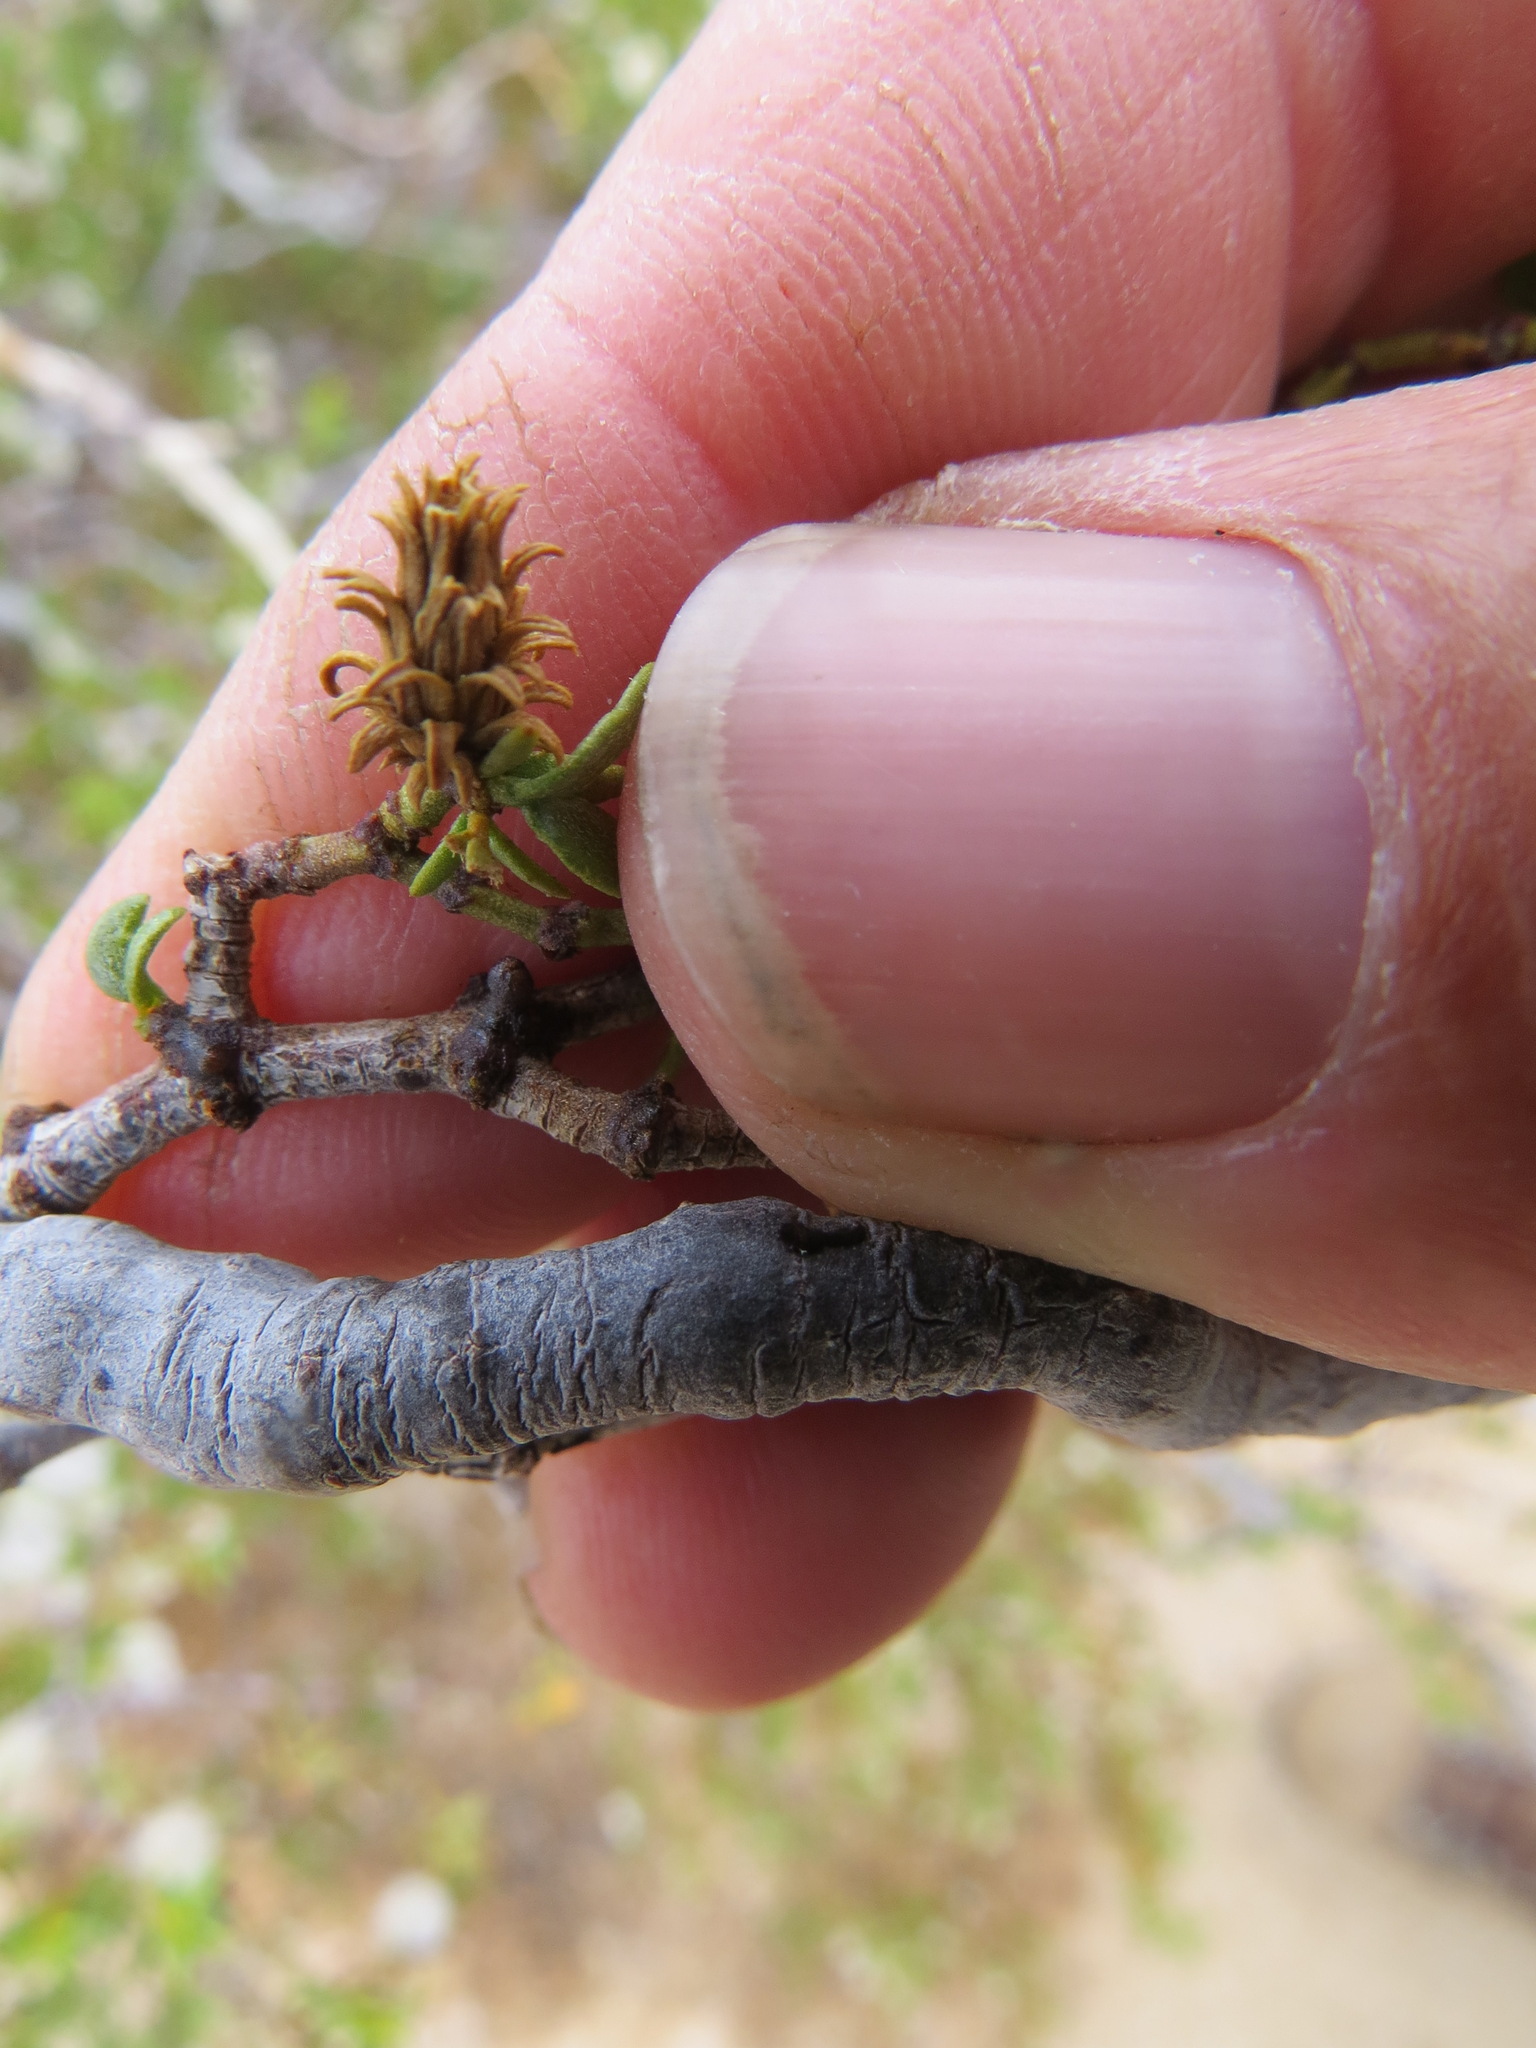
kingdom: Animalia
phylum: Arthropoda
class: Insecta
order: Diptera
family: Cecidomyiidae
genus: Asphondylia
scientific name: Asphondylia rosetta
